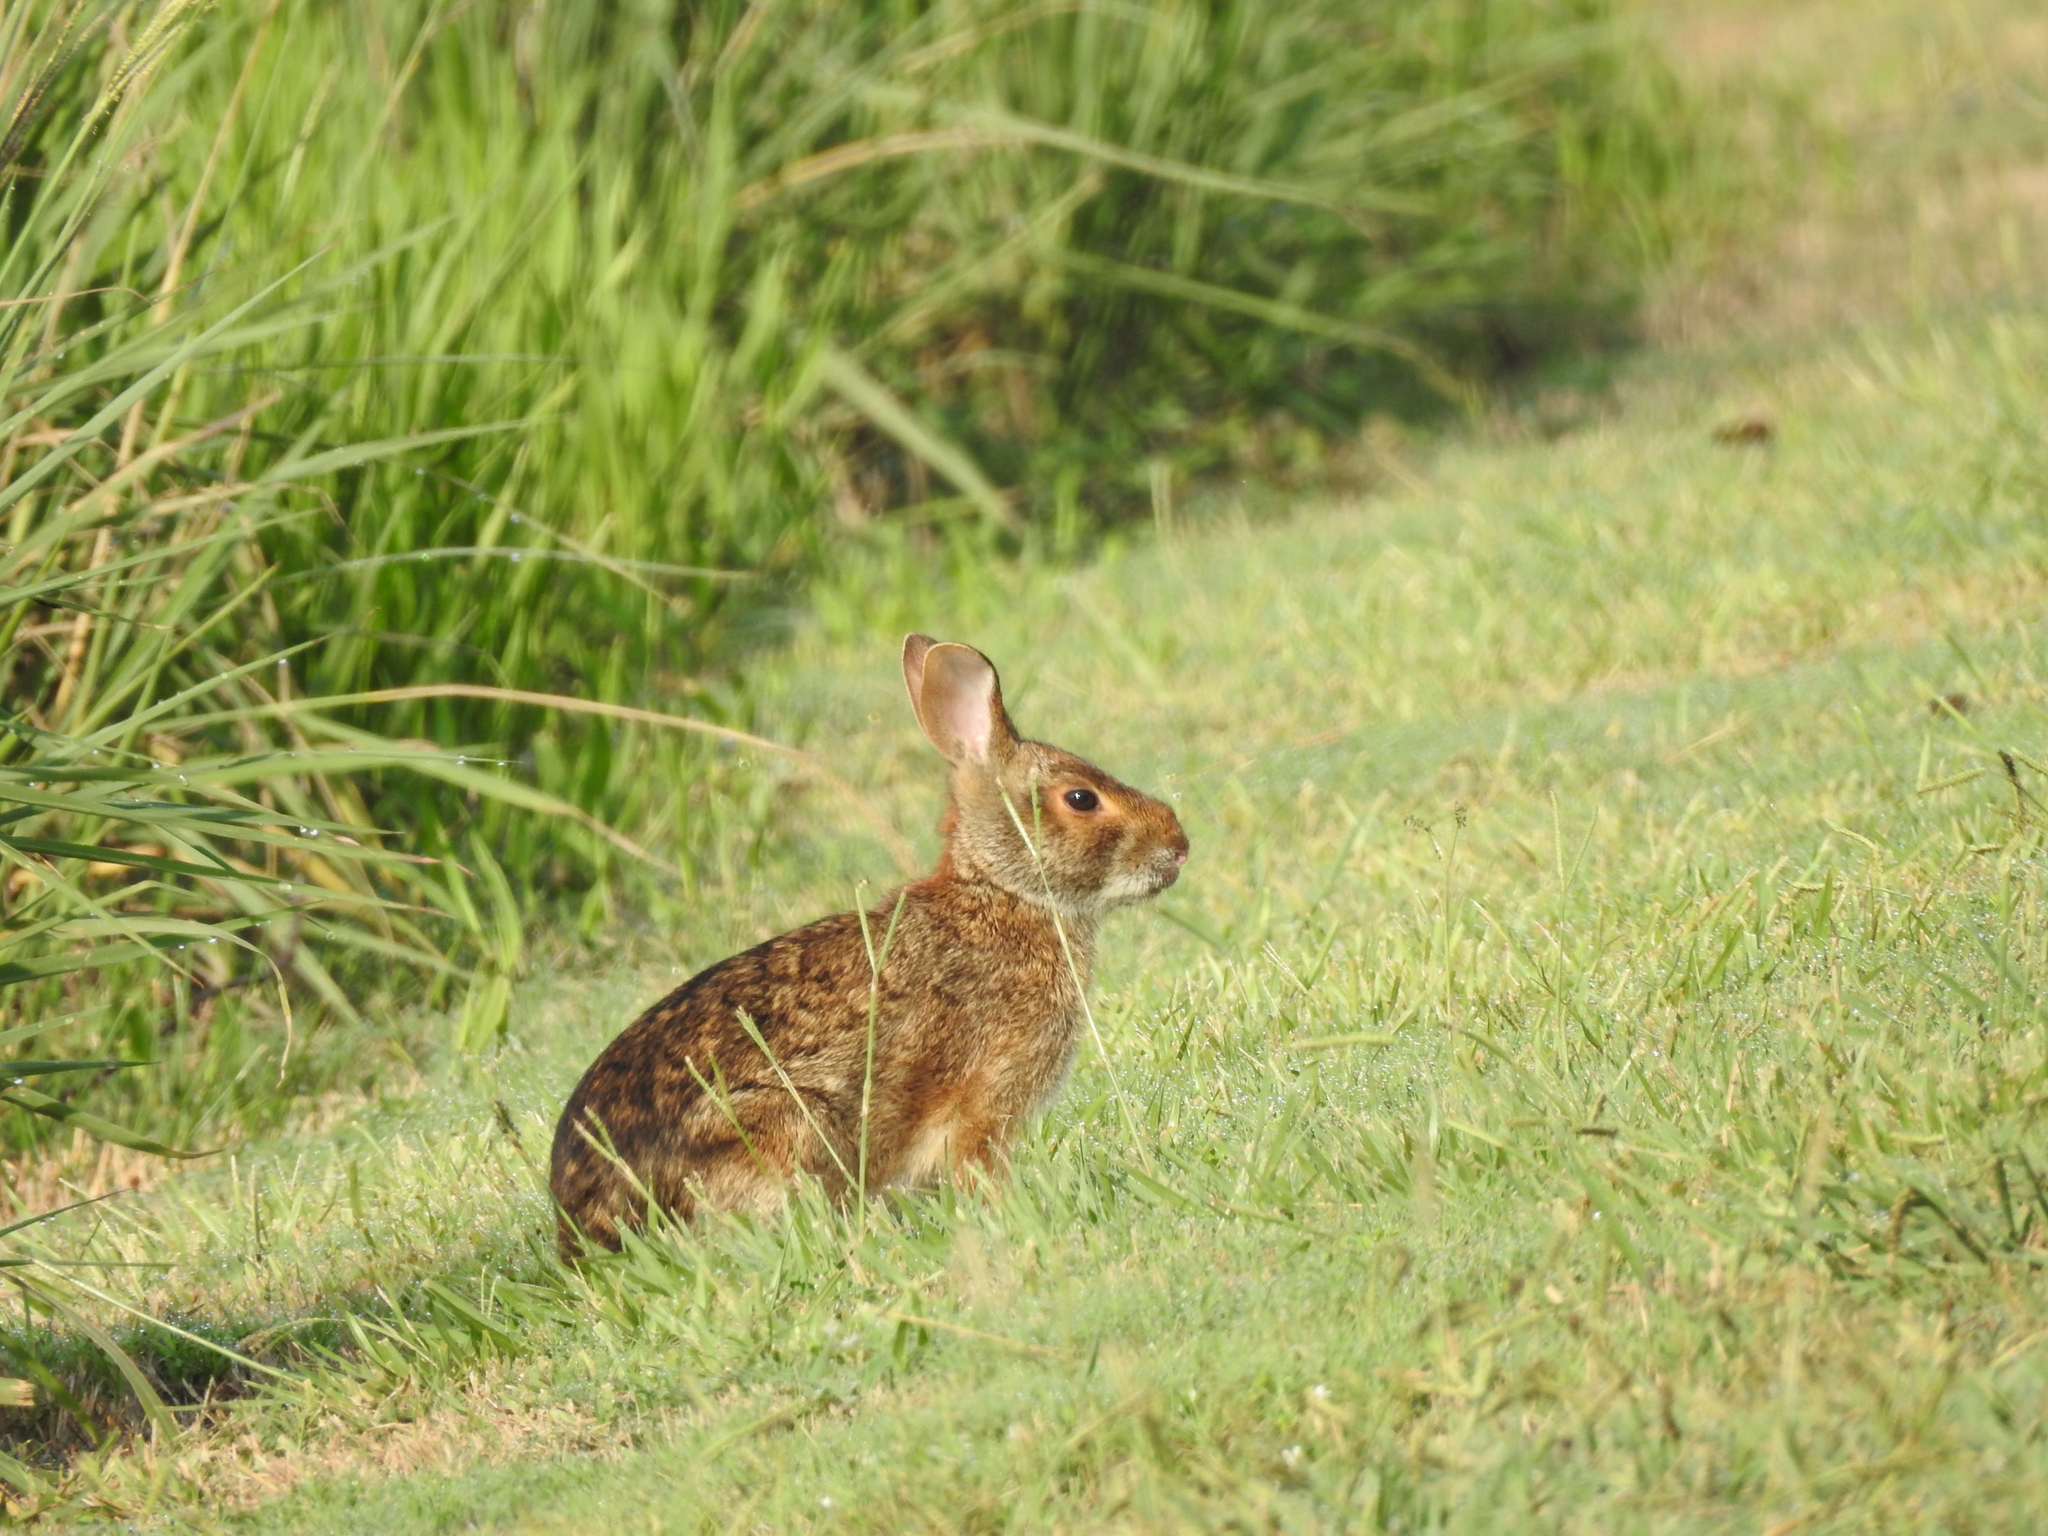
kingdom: Animalia
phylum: Chordata
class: Mammalia
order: Lagomorpha
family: Leporidae
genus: Sylvilagus
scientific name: Sylvilagus aquaticus
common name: Swamp rabbit
